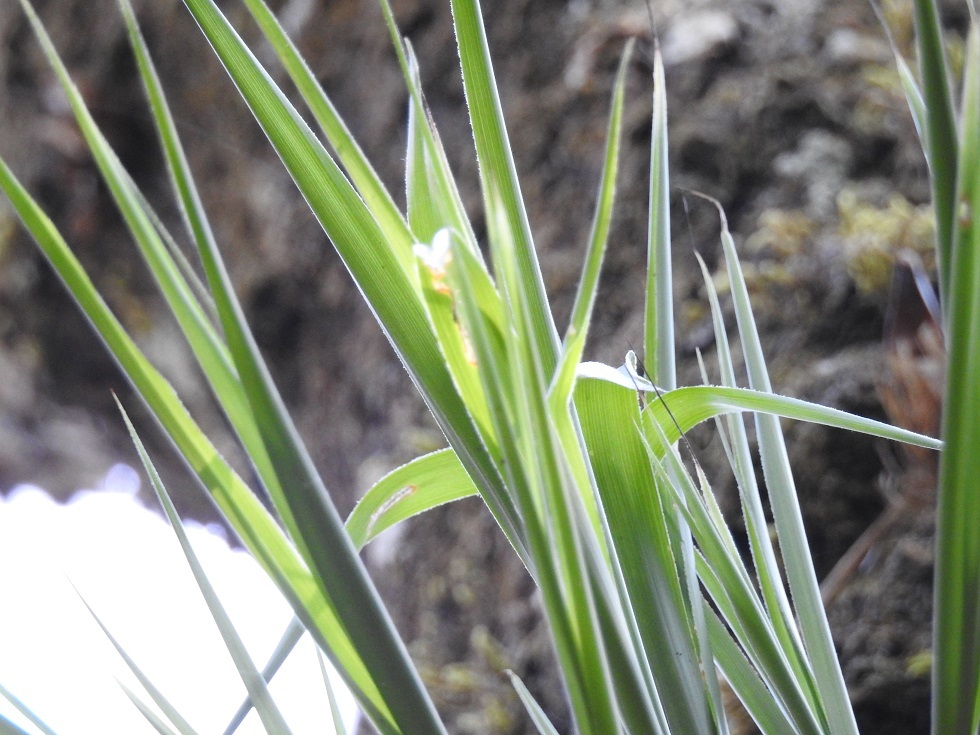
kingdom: Plantae
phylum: Tracheophyta
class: Liliopsida
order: Poales
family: Bromeliaceae
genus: Pitcairnia
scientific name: Pitcairnia heterophylla
